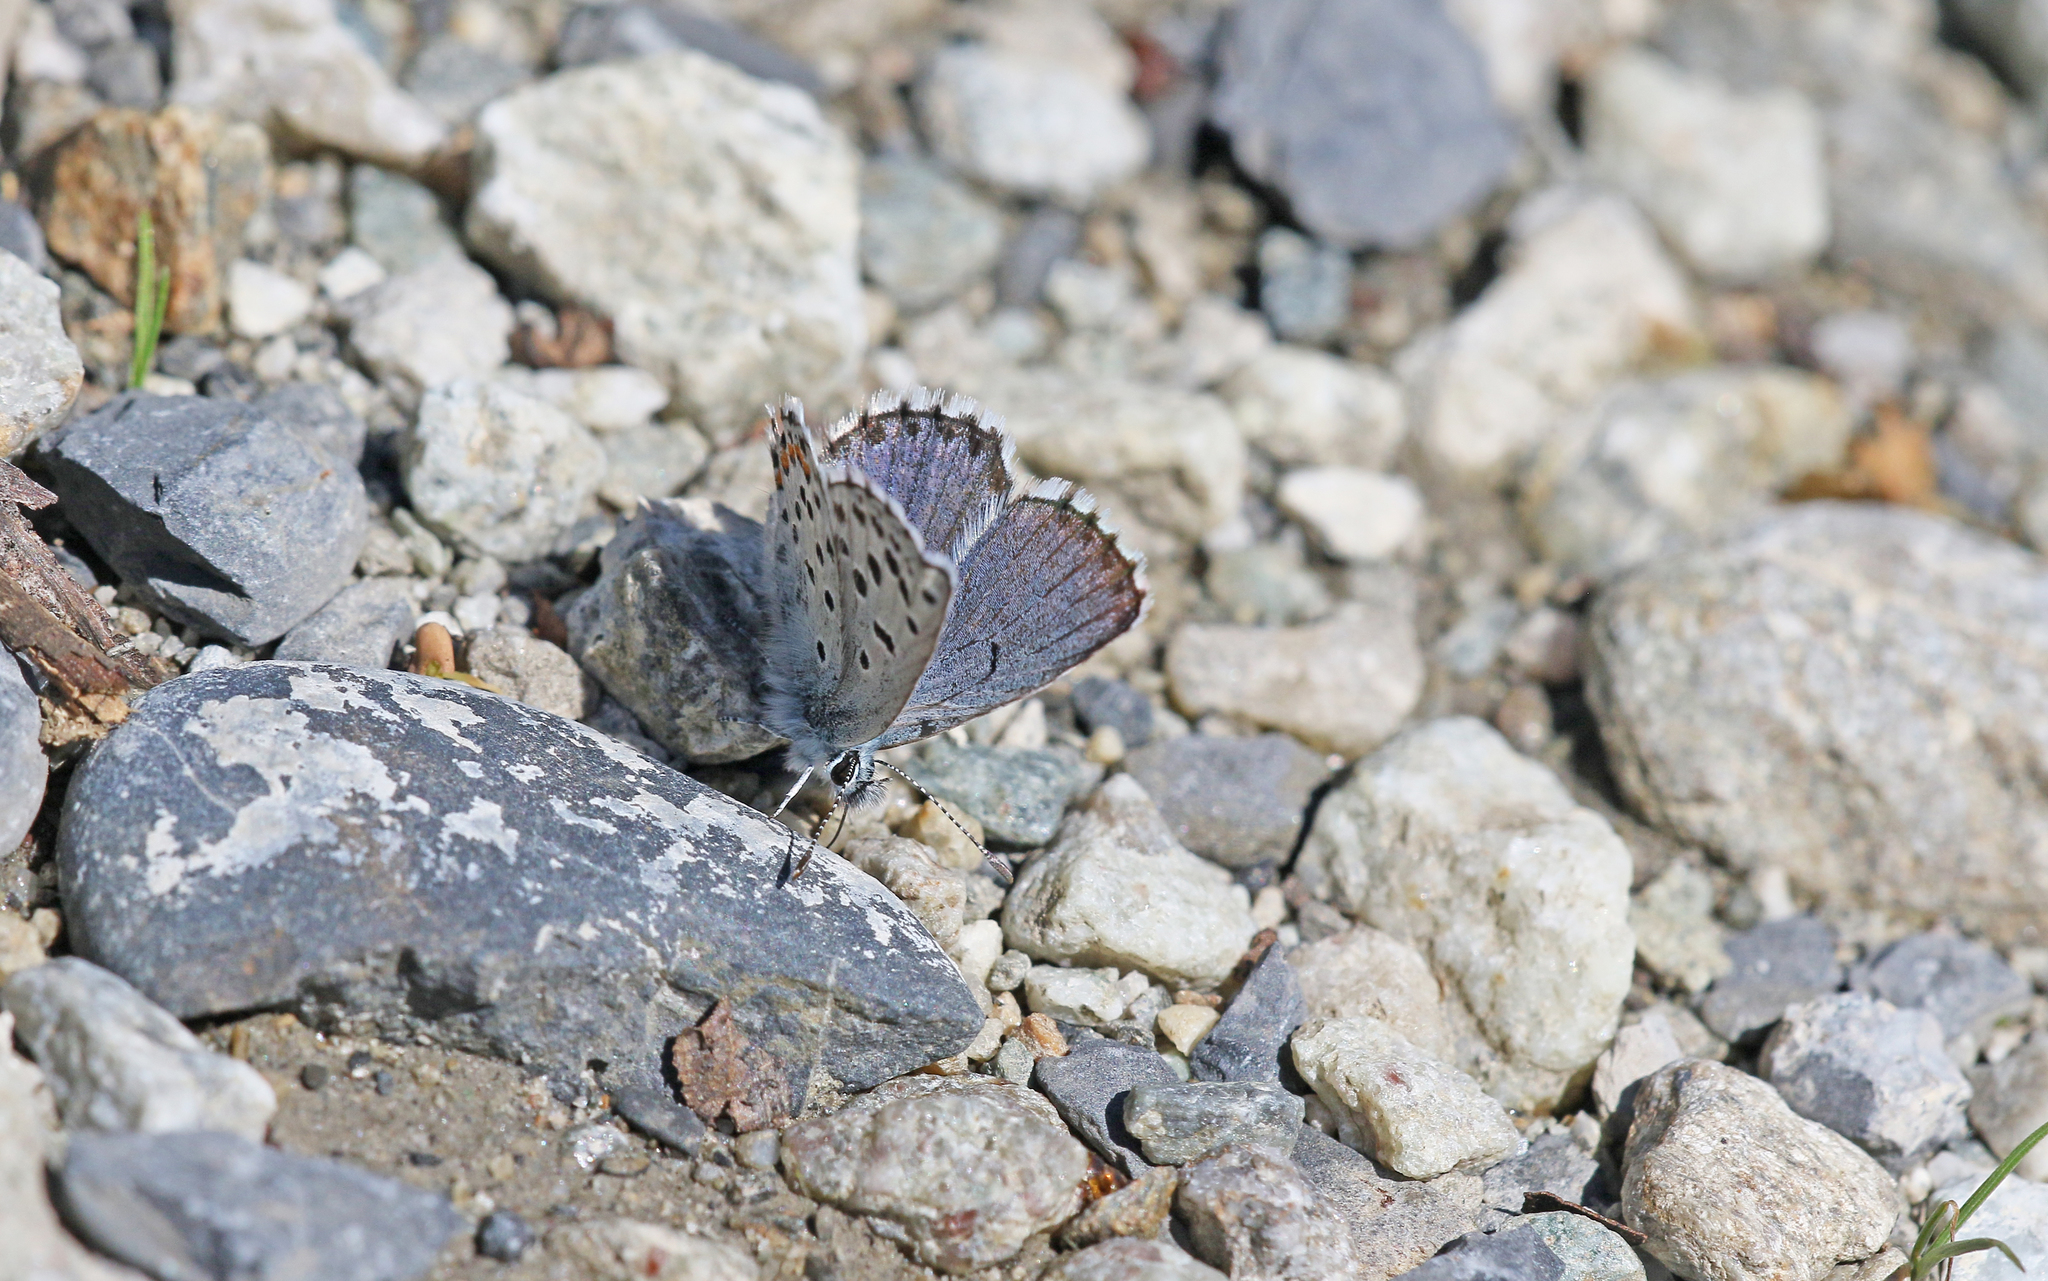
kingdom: Animalia
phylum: Arthropoda
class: Insecta
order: Lepidoptera
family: Lycaenidae
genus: Pseudophilotes
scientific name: Pseudophilotes baton
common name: Baton blue
